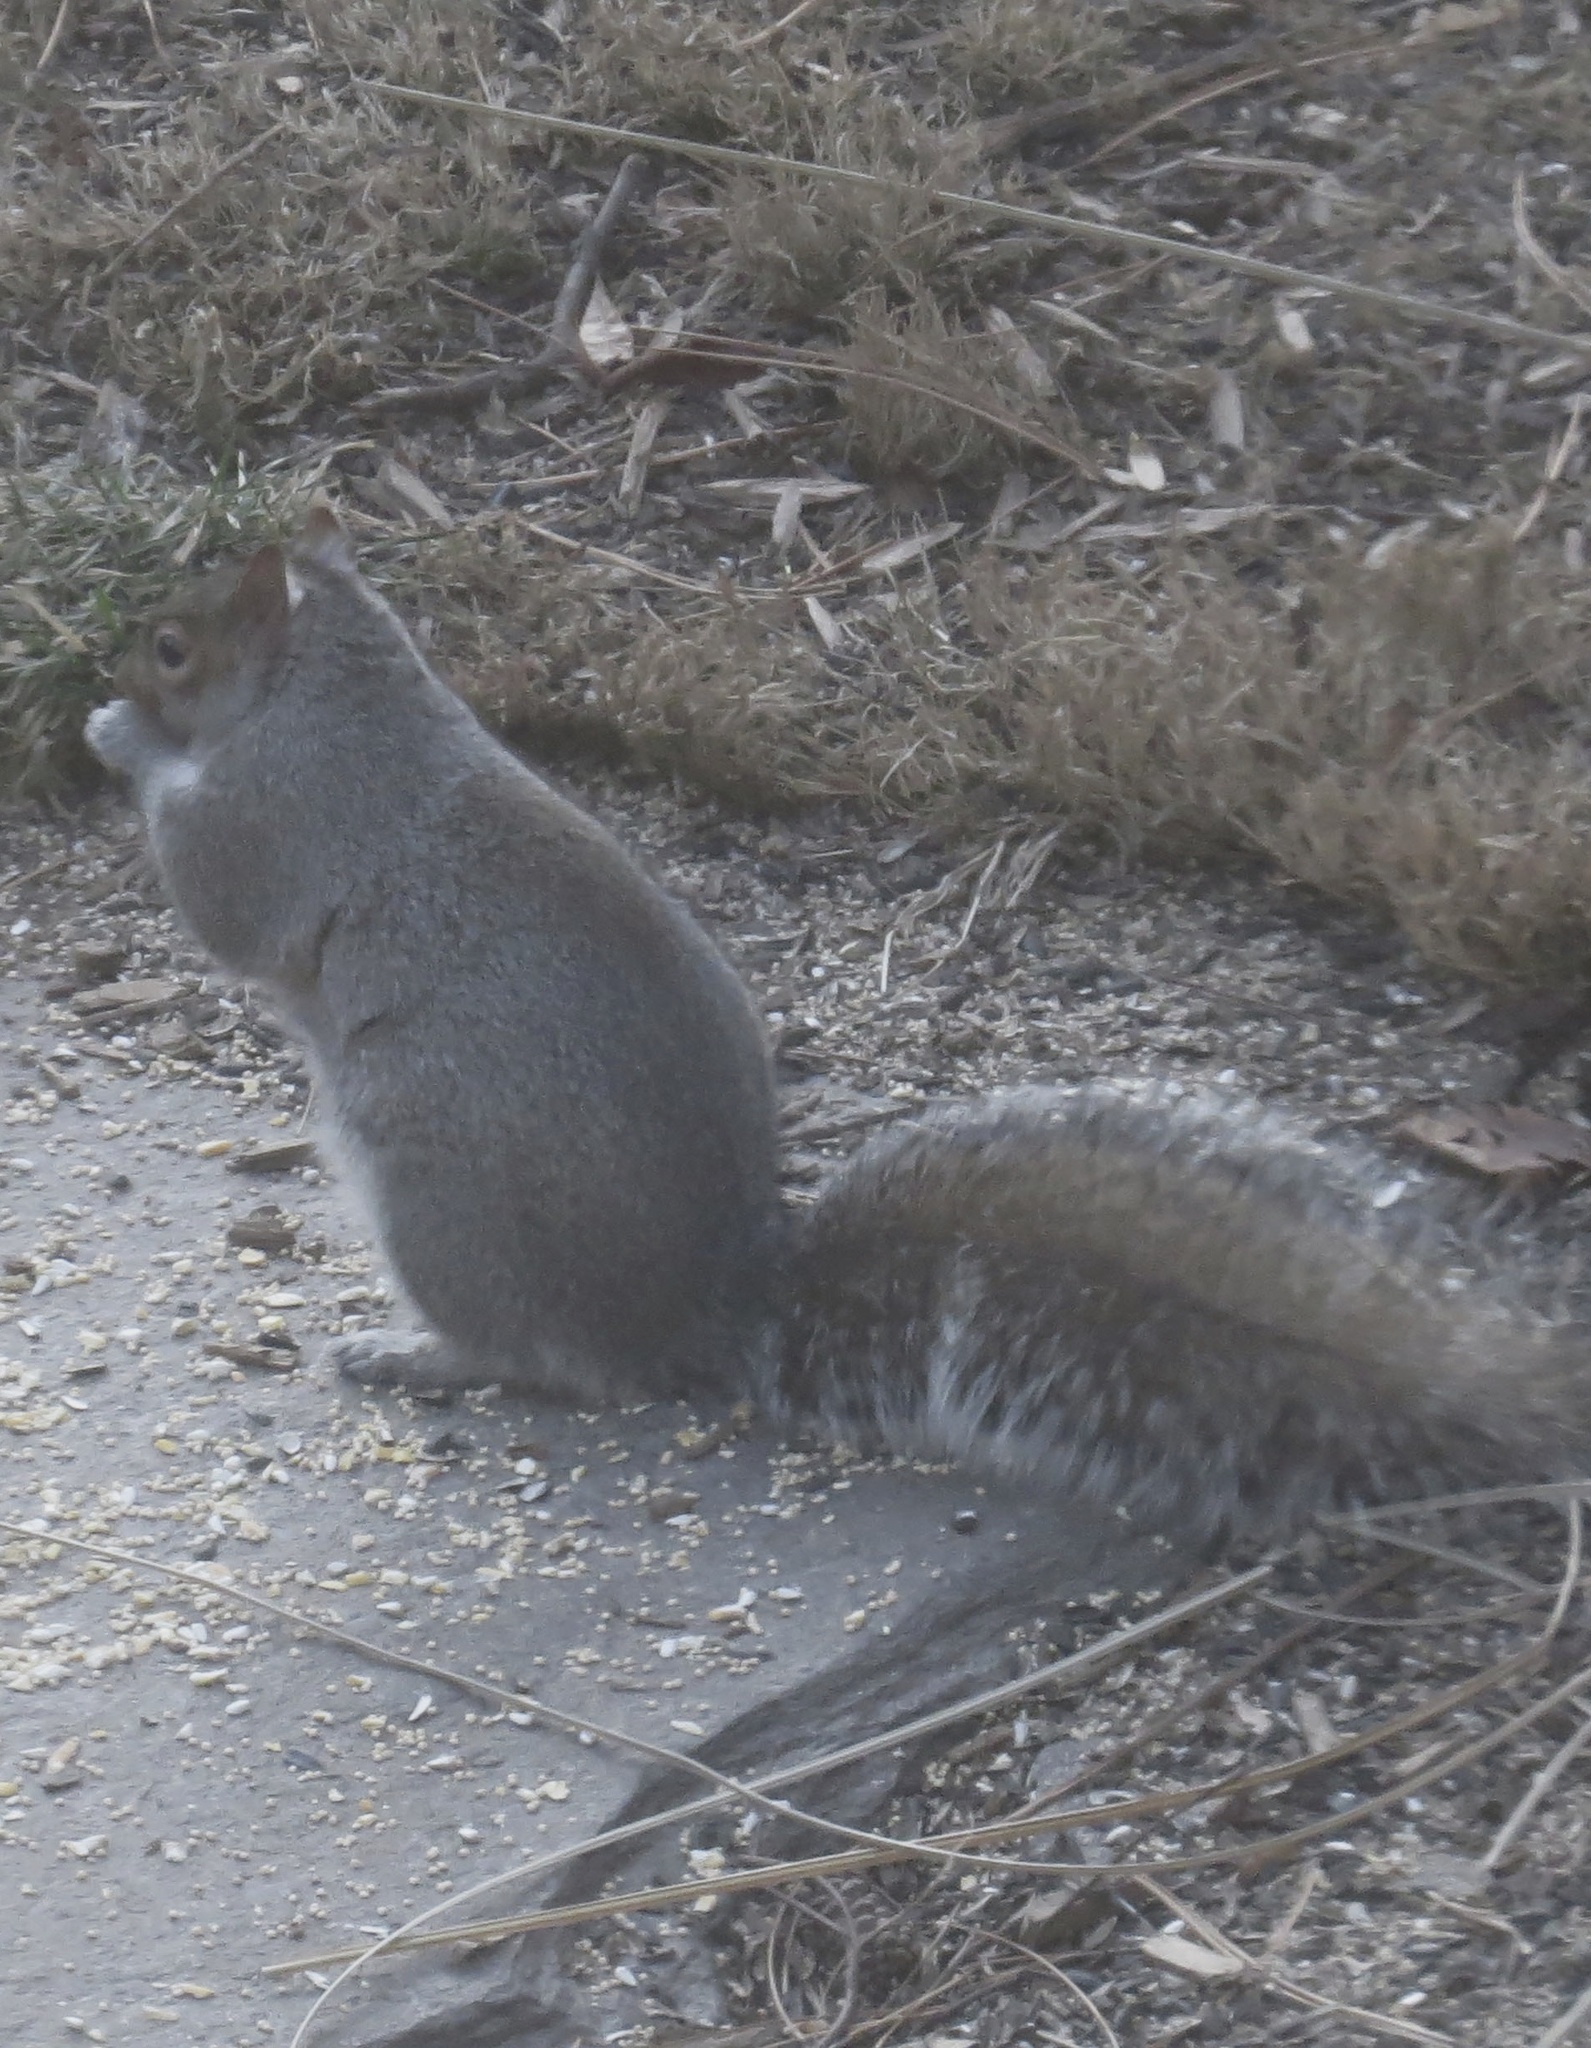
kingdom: Animalia
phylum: Chordata
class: Mammalia
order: Rodentia
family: Sciuridae
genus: Sciurus
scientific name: Sciurus carolinensis
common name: Eastern gray squirrel
